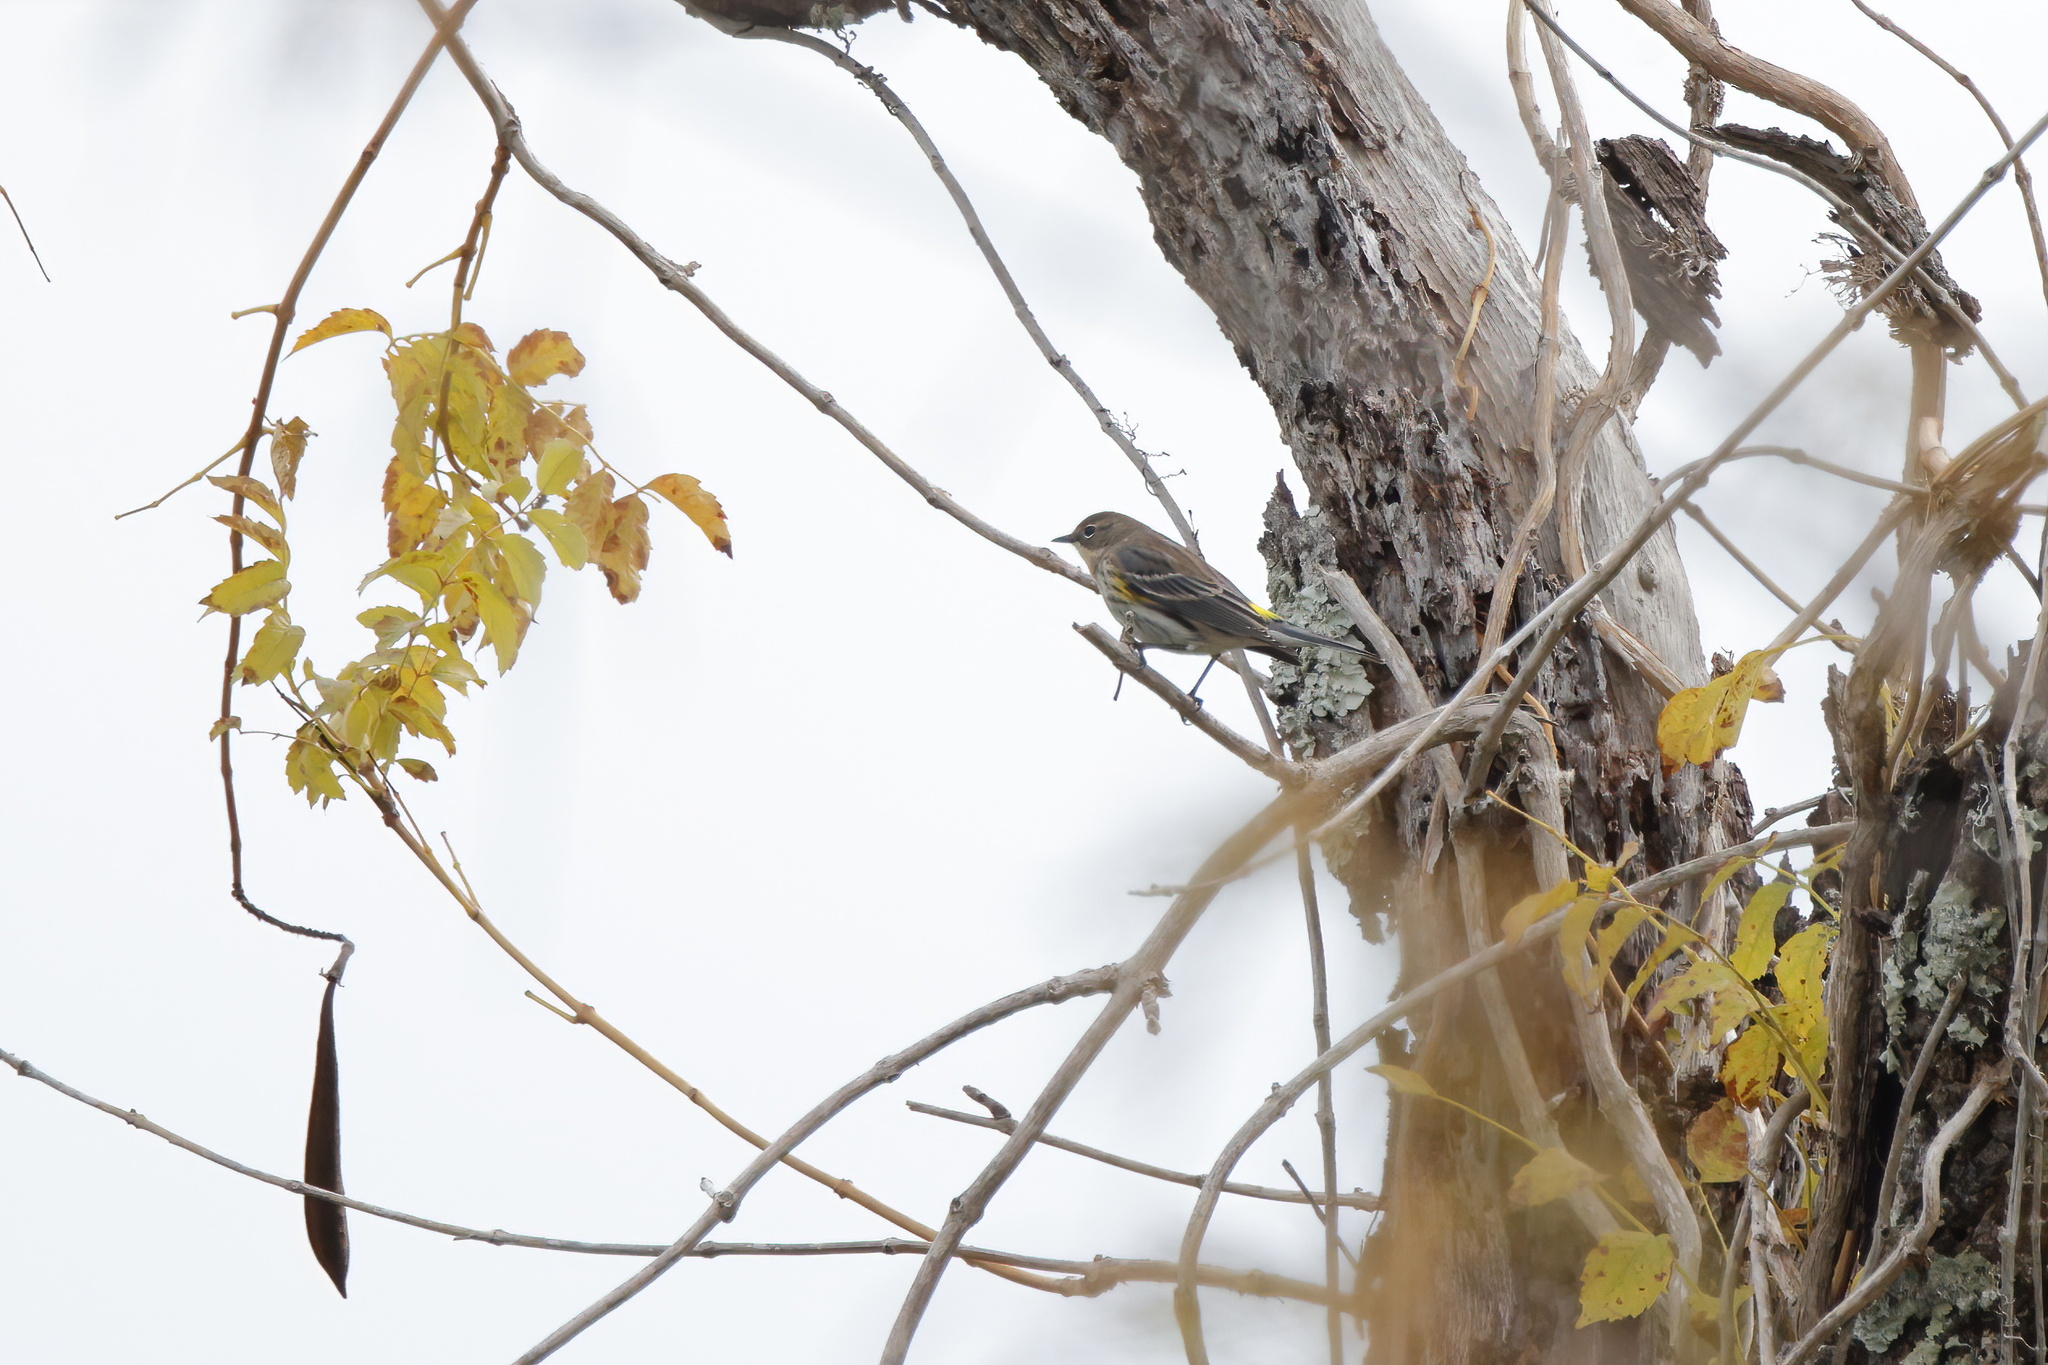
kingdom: Animalia
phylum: Chordata
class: Aves
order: Passeriformes
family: Parulidae
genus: Setophaga
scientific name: Setophaga coronata
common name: Myrtle warbler
